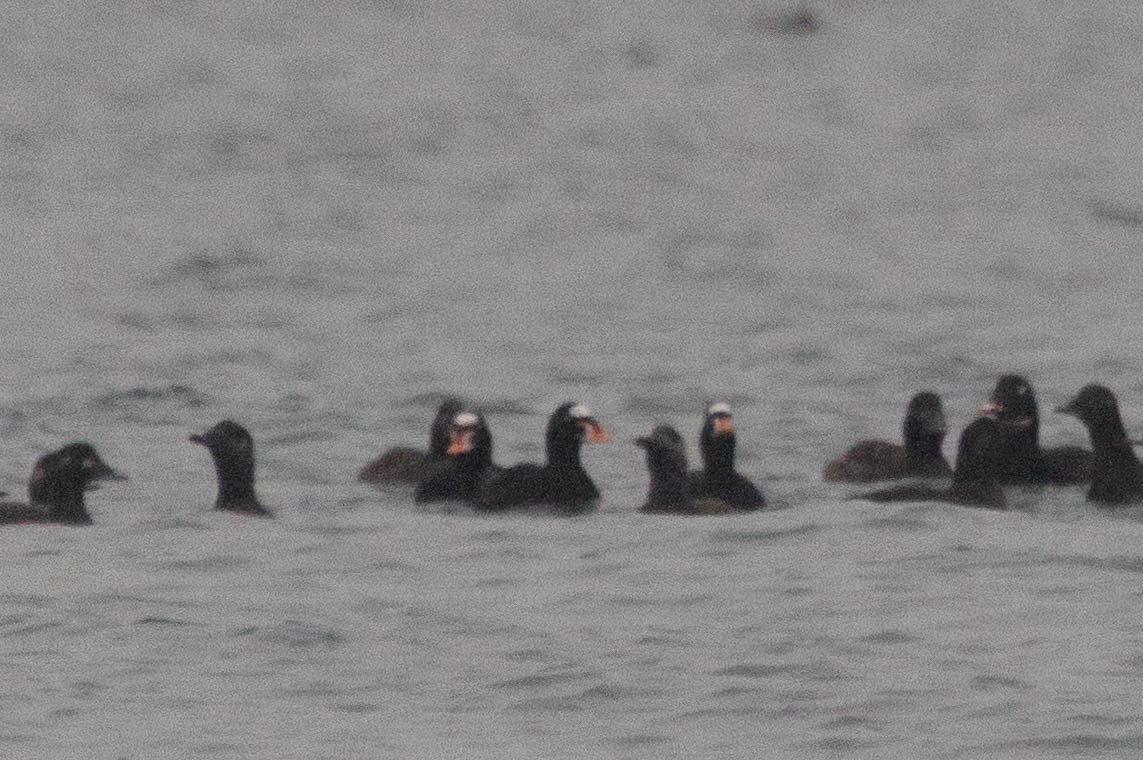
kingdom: Animalia
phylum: Chordata
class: Aves
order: Anseriformes
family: Anatidae
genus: Melanitta
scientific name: Melanitta perspicillata
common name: Surf scoter
